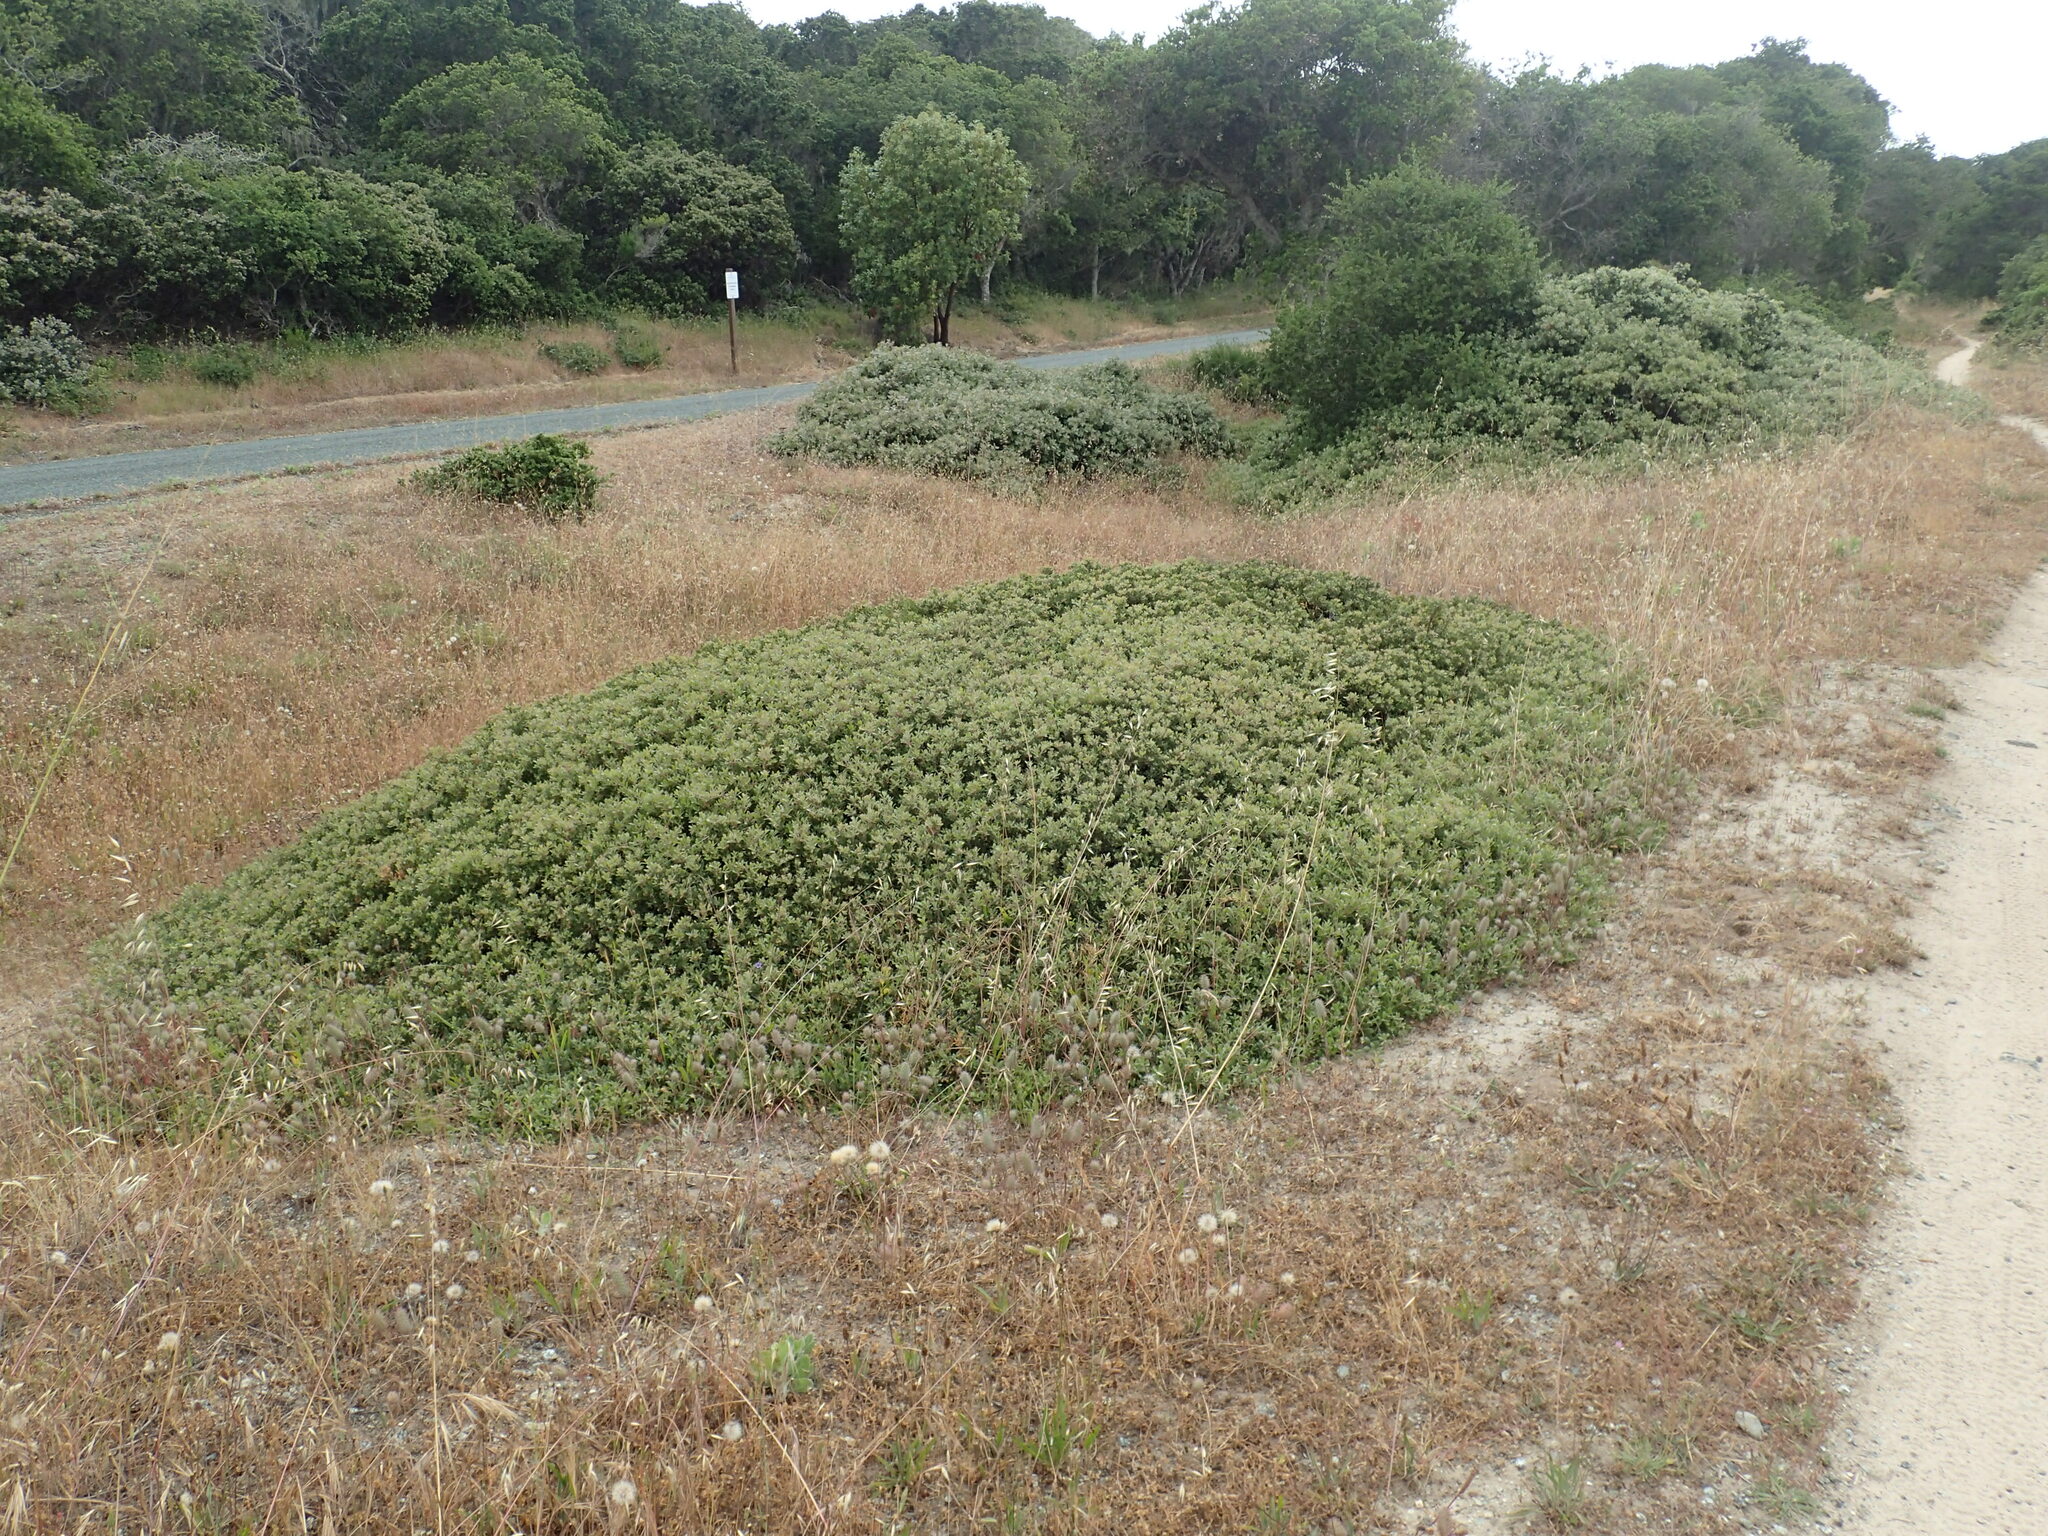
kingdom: Plantae
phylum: Tracheophyta
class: Magnoliopsida
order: Ericales
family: Ericaceae
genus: Arctostaphylos
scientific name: Arctostaphylos pumila
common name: Sandmat manzanita
